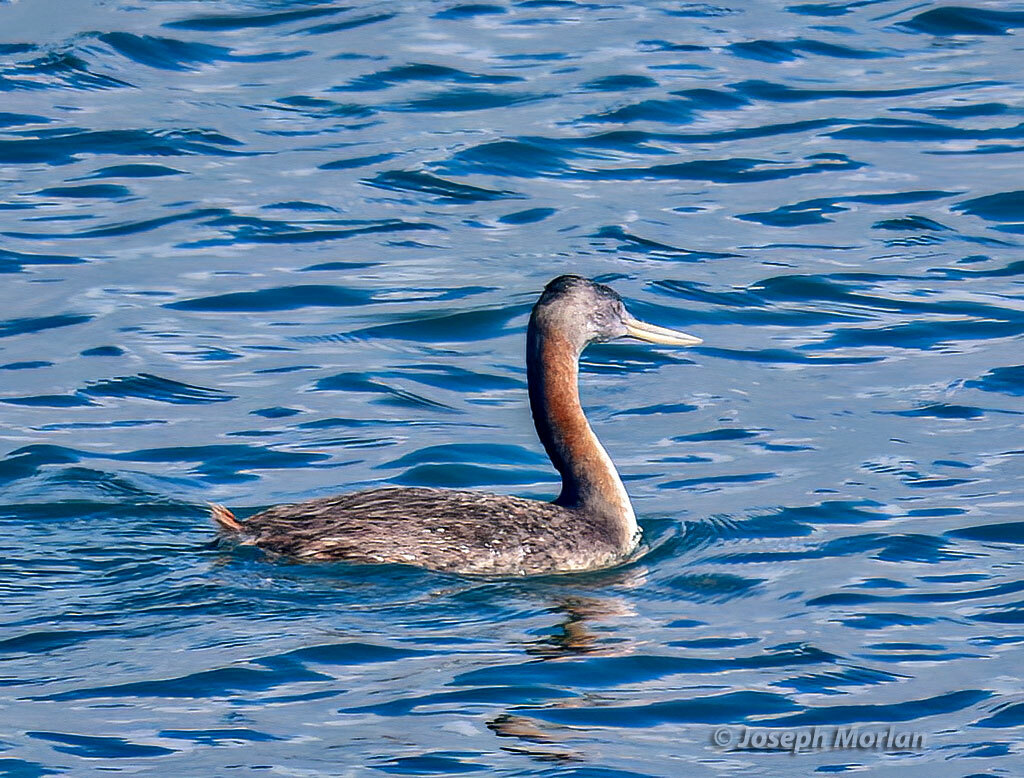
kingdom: Animalia
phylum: Chordata
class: Aves
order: Podicipediformes
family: Podicipedidae
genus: Podiceps
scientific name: Podiceps major
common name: Great grebe
